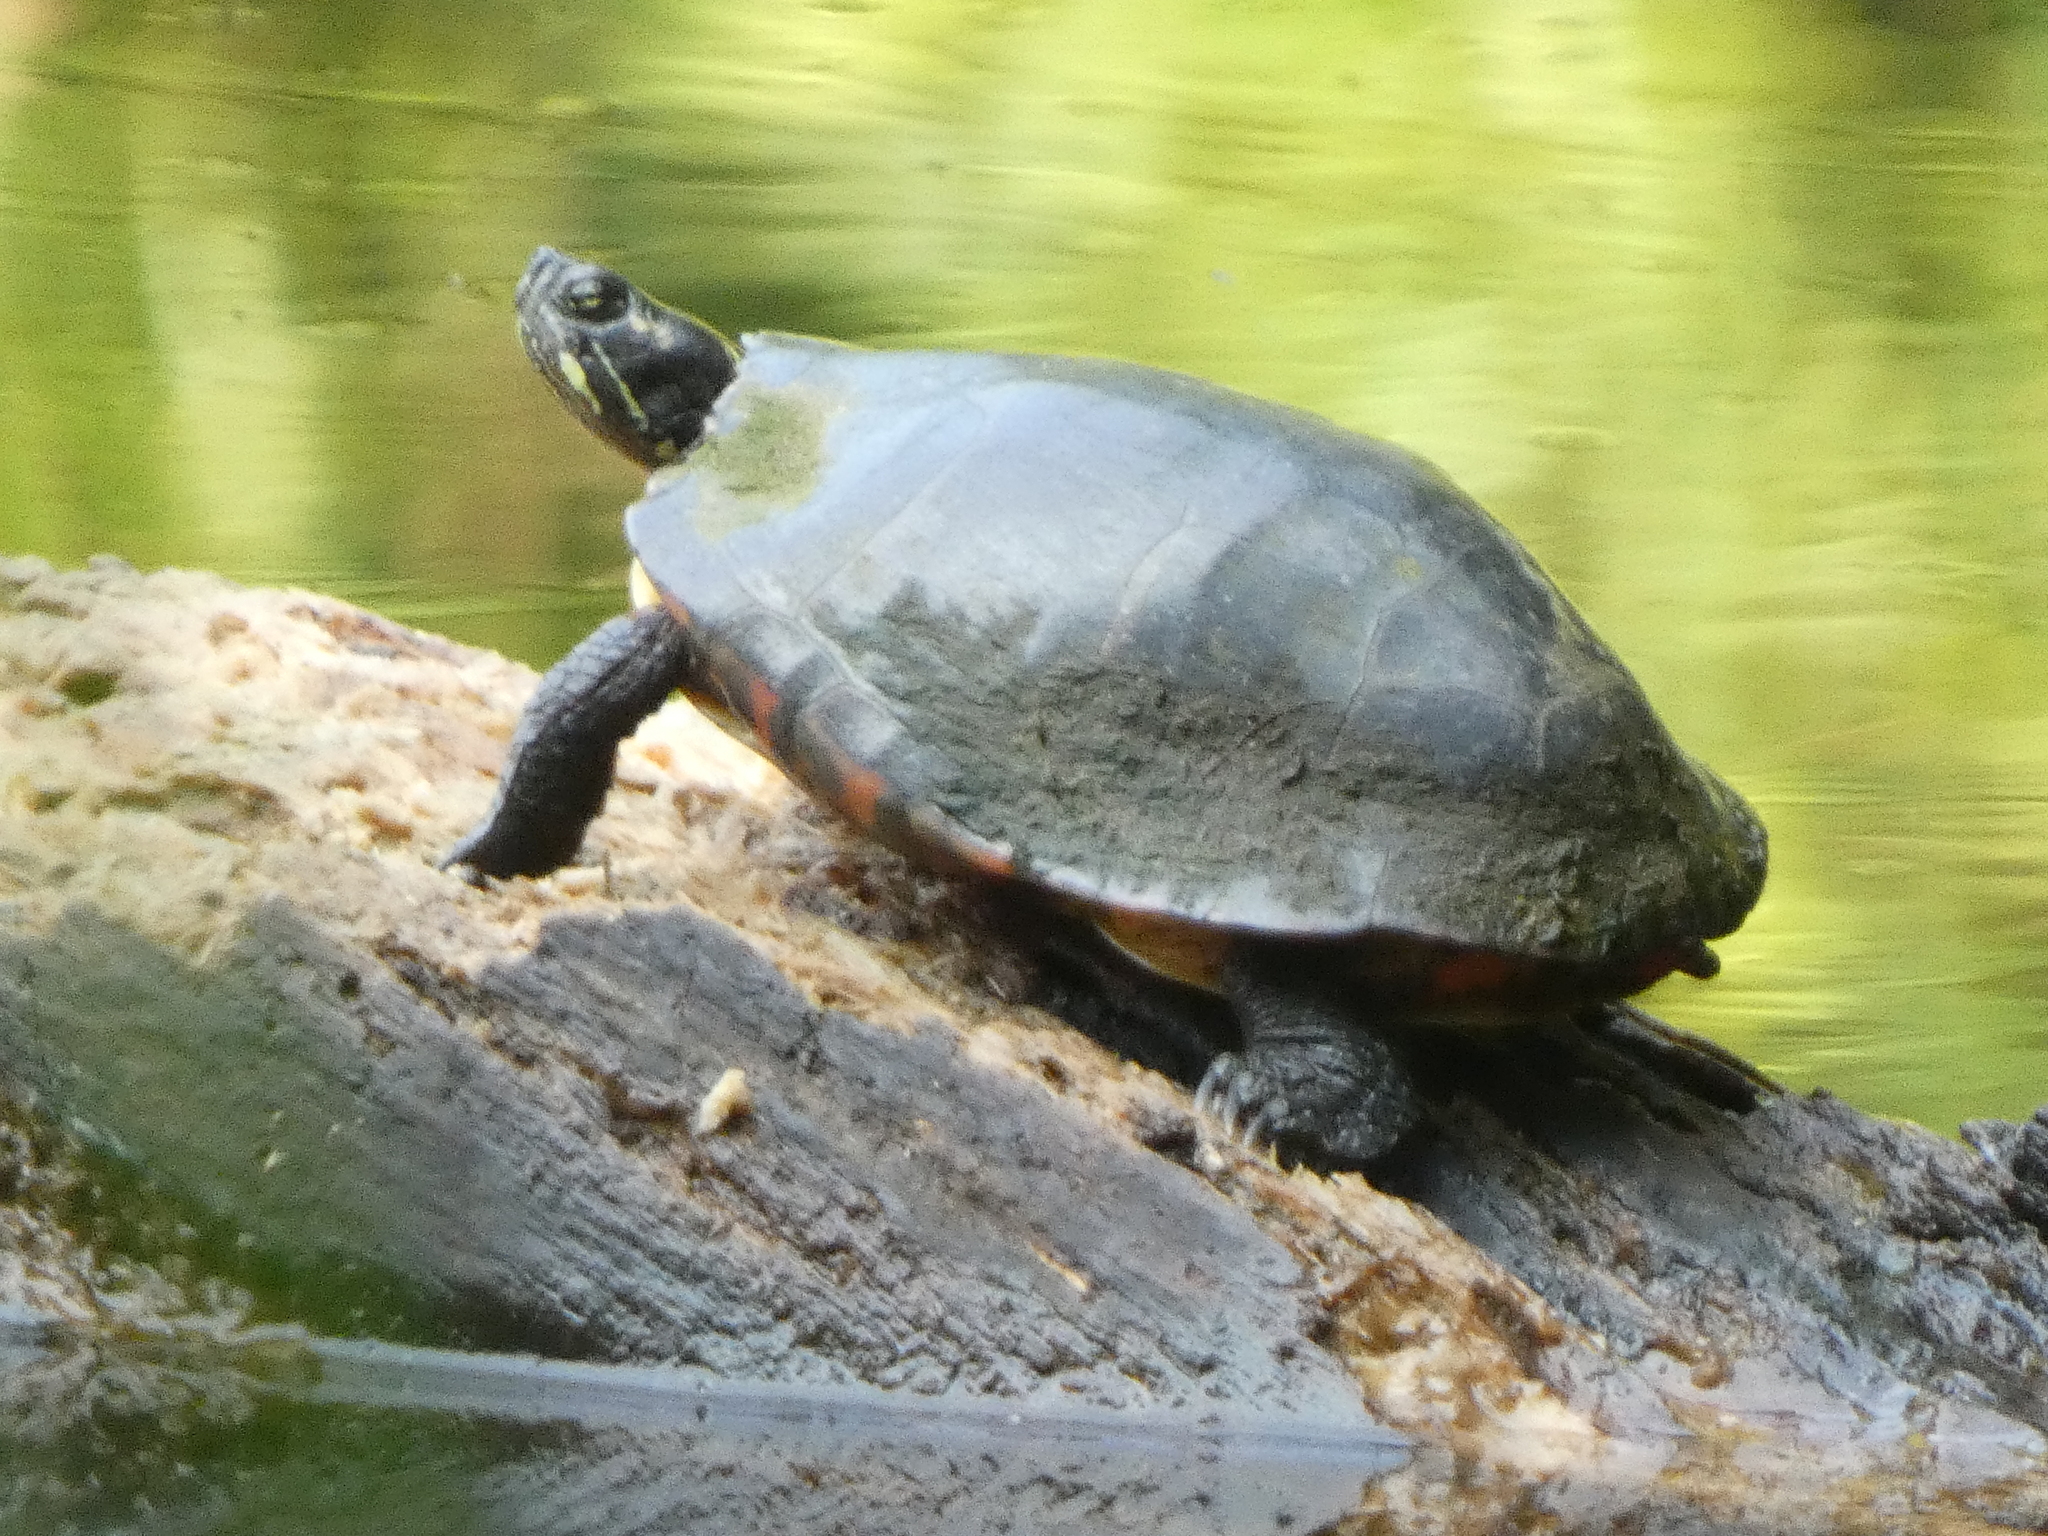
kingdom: Animalia
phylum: Chordata
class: Testudines
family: Emydidae
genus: Chrysemys
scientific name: Chrysemys picta
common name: Painted turtle
